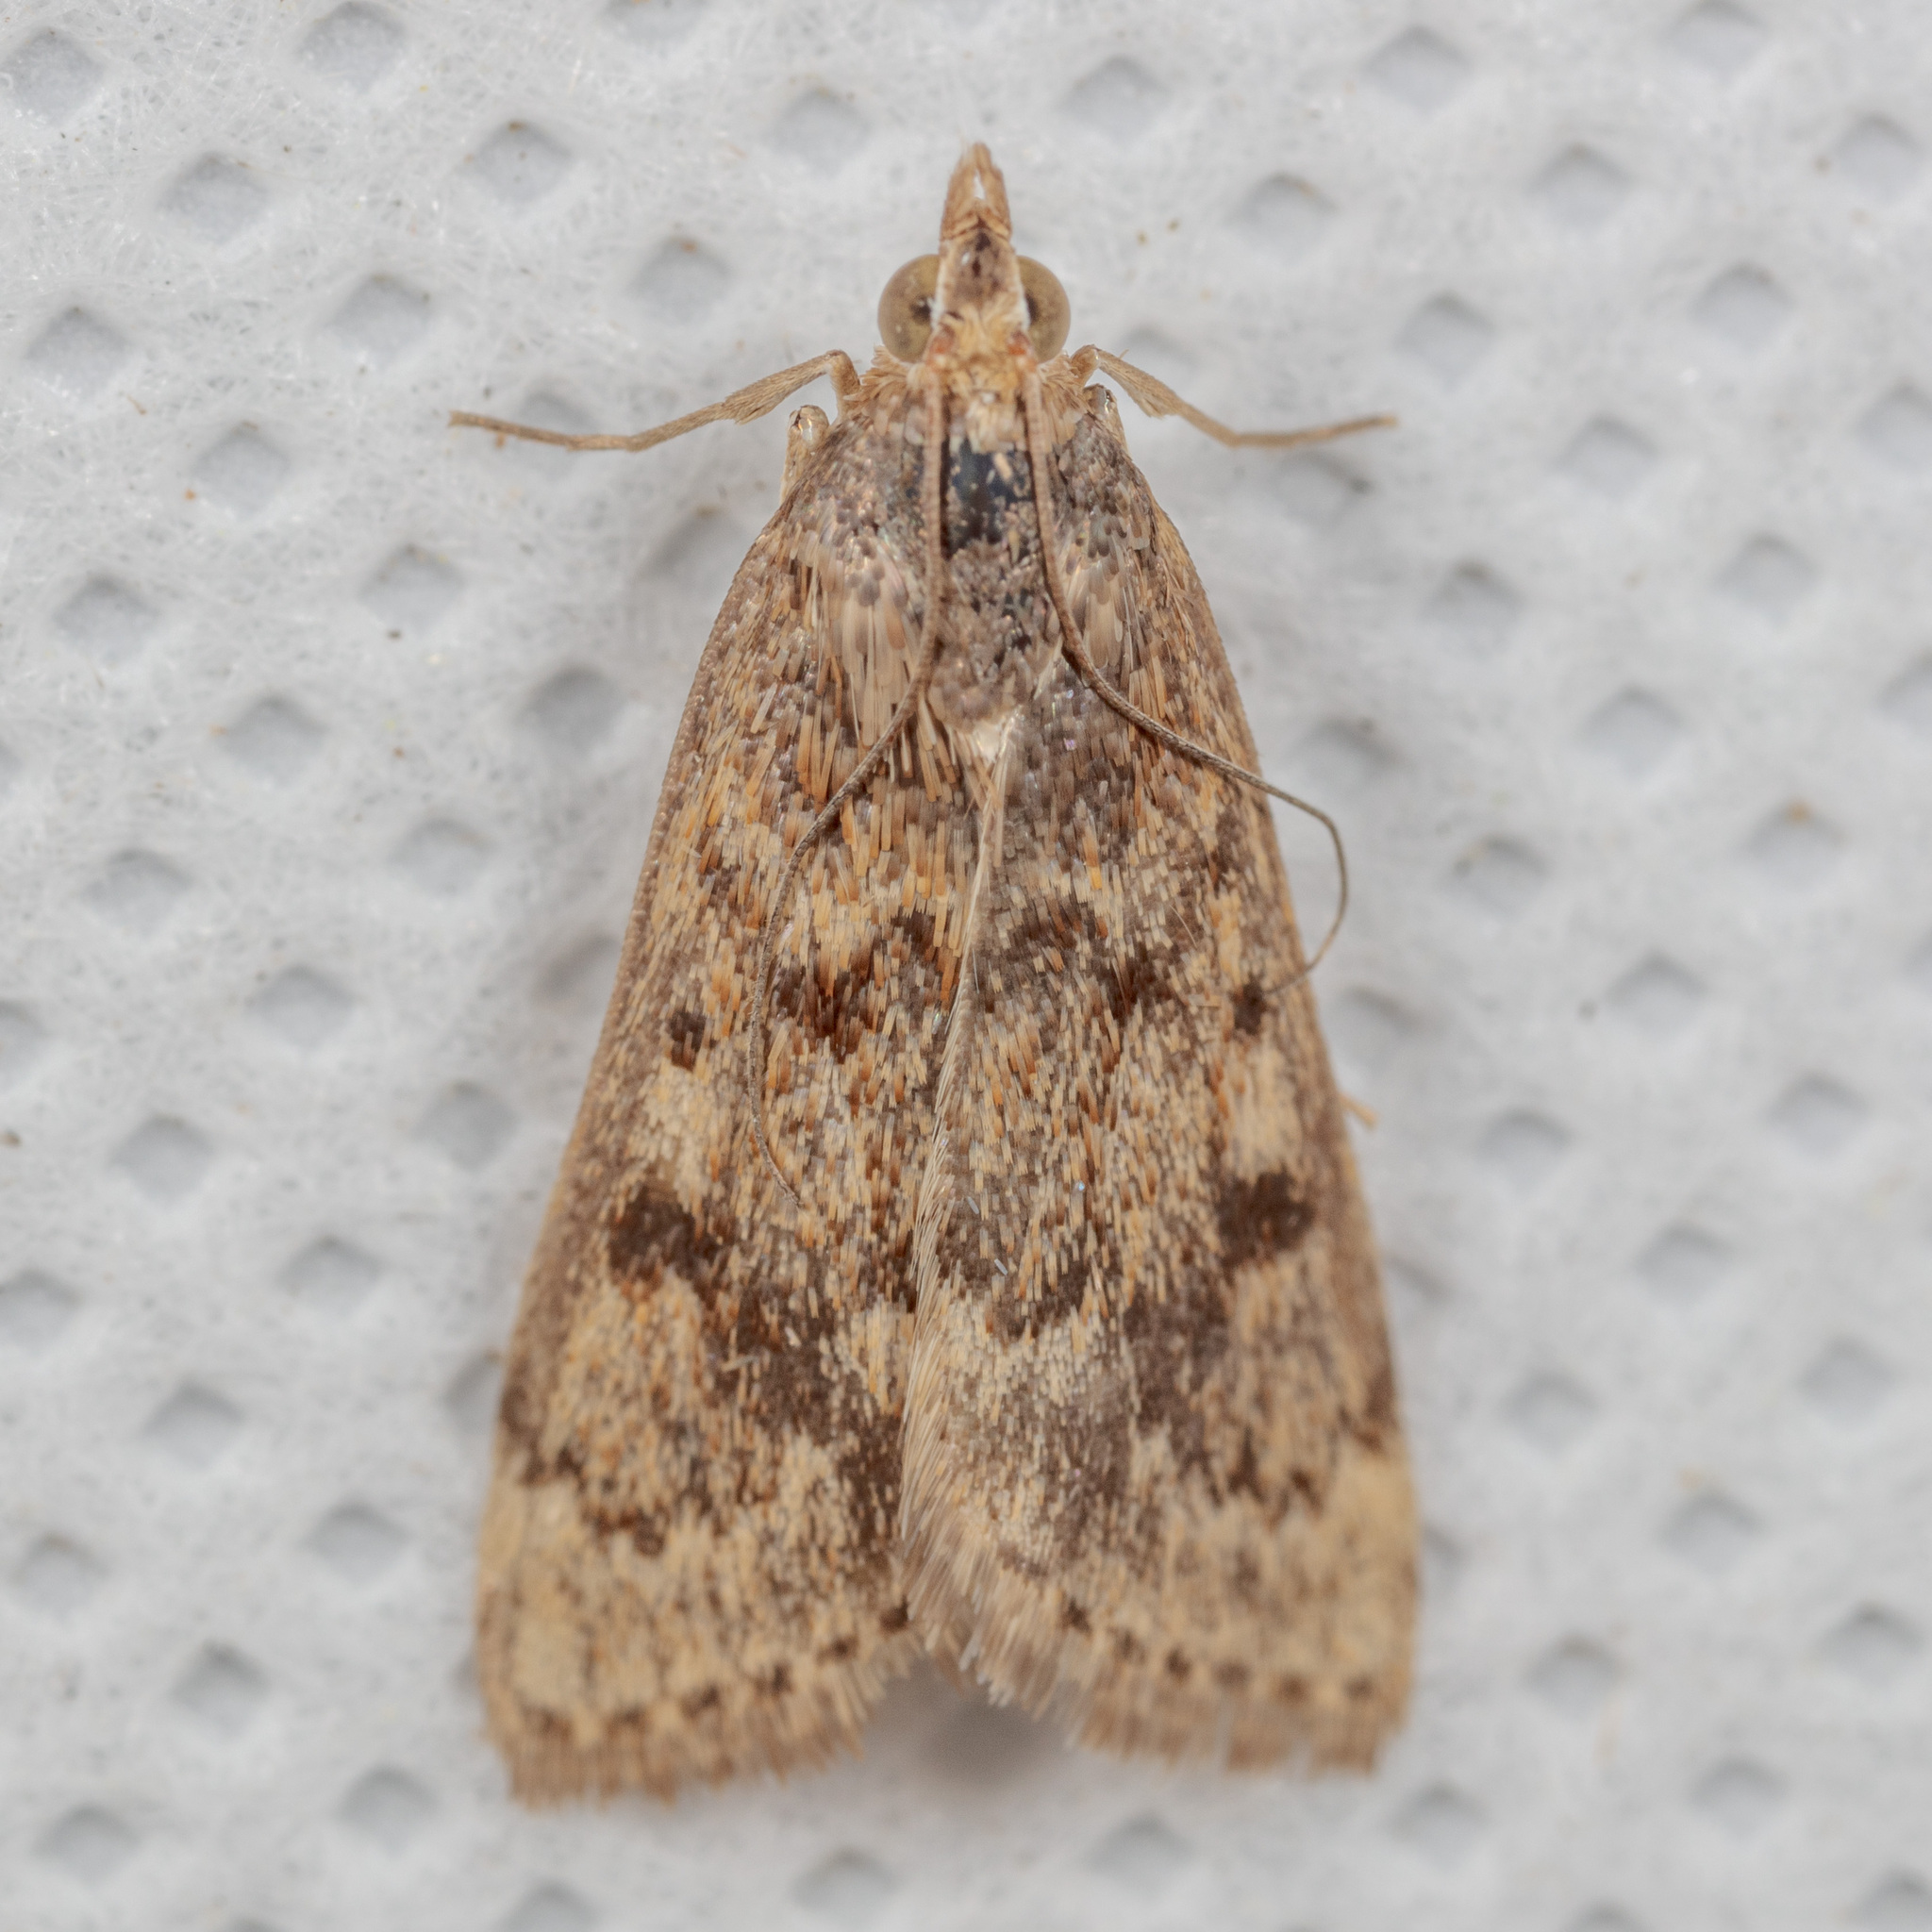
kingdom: Animalia
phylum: Arthropoda
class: Insecta
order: Lepidoptera
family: Crambidae
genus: Achyra
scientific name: Achyra rantalis
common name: Garden webworm
